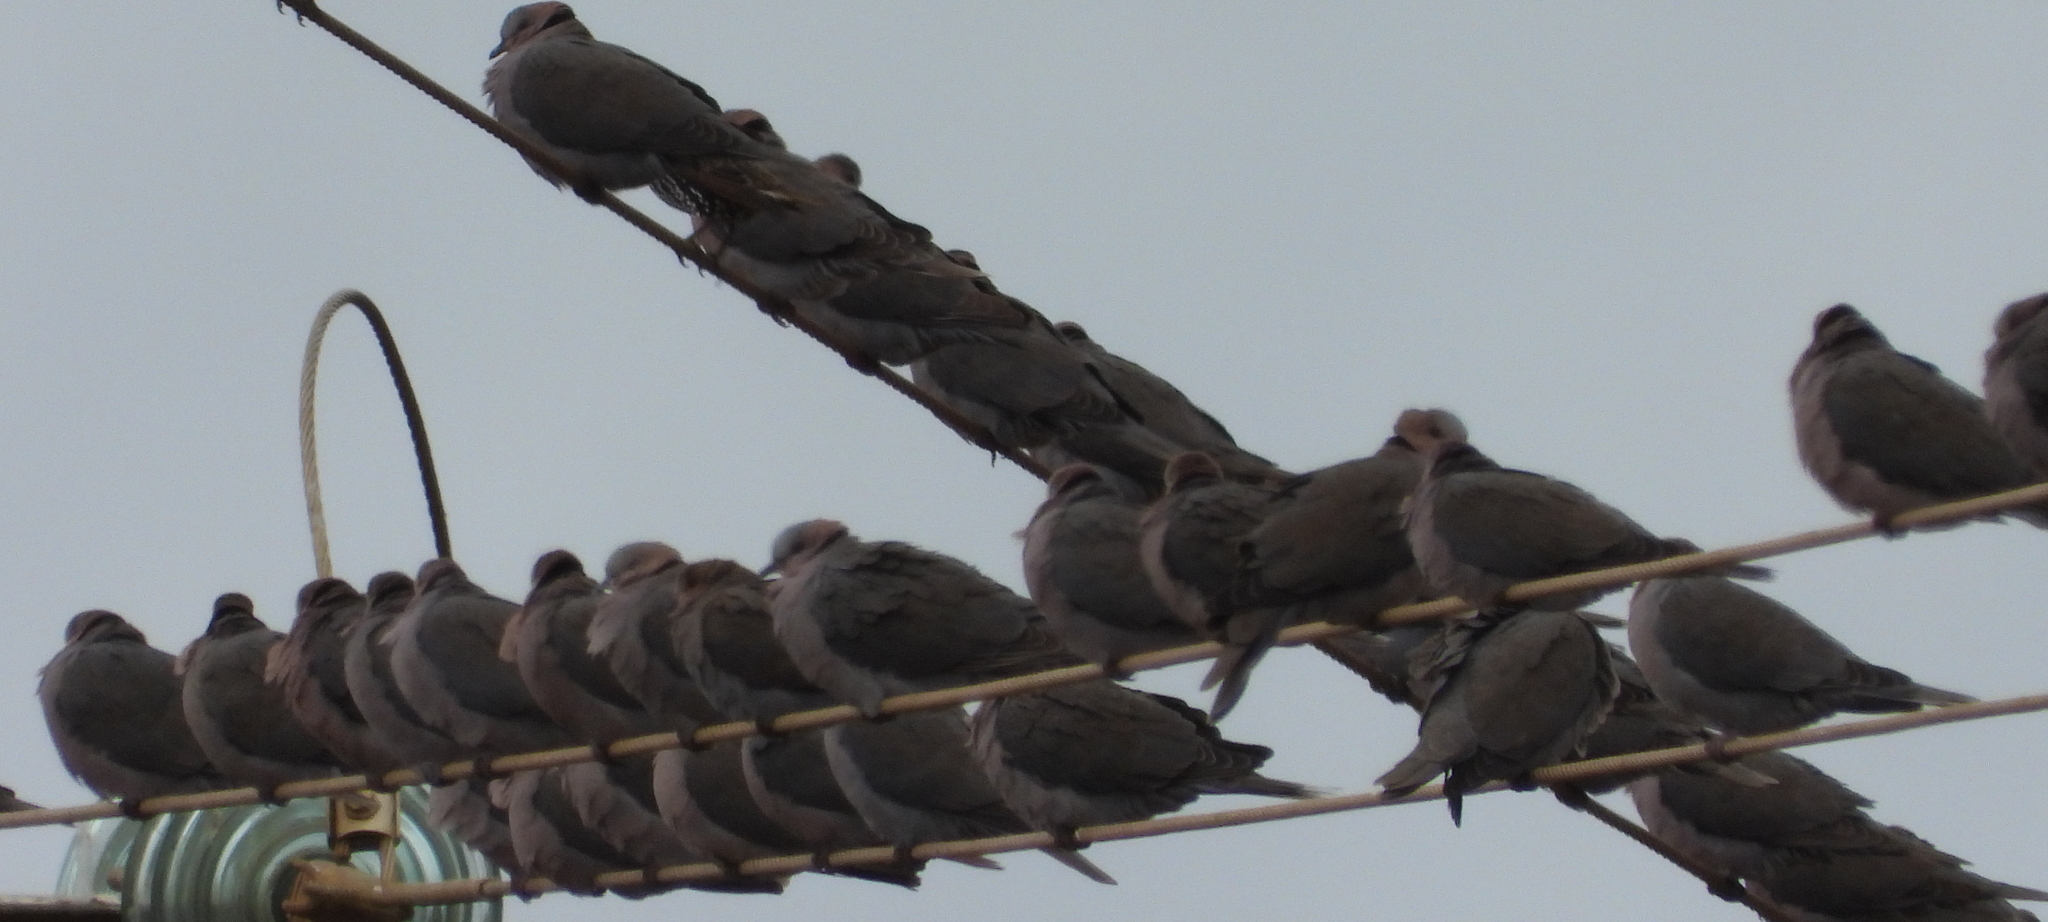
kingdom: Animalia
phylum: Chordata
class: Aves
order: Columbiformes
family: Columbidae
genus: Streptopelia
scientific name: Streptopelia semitorquata
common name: Red-eyed dove
